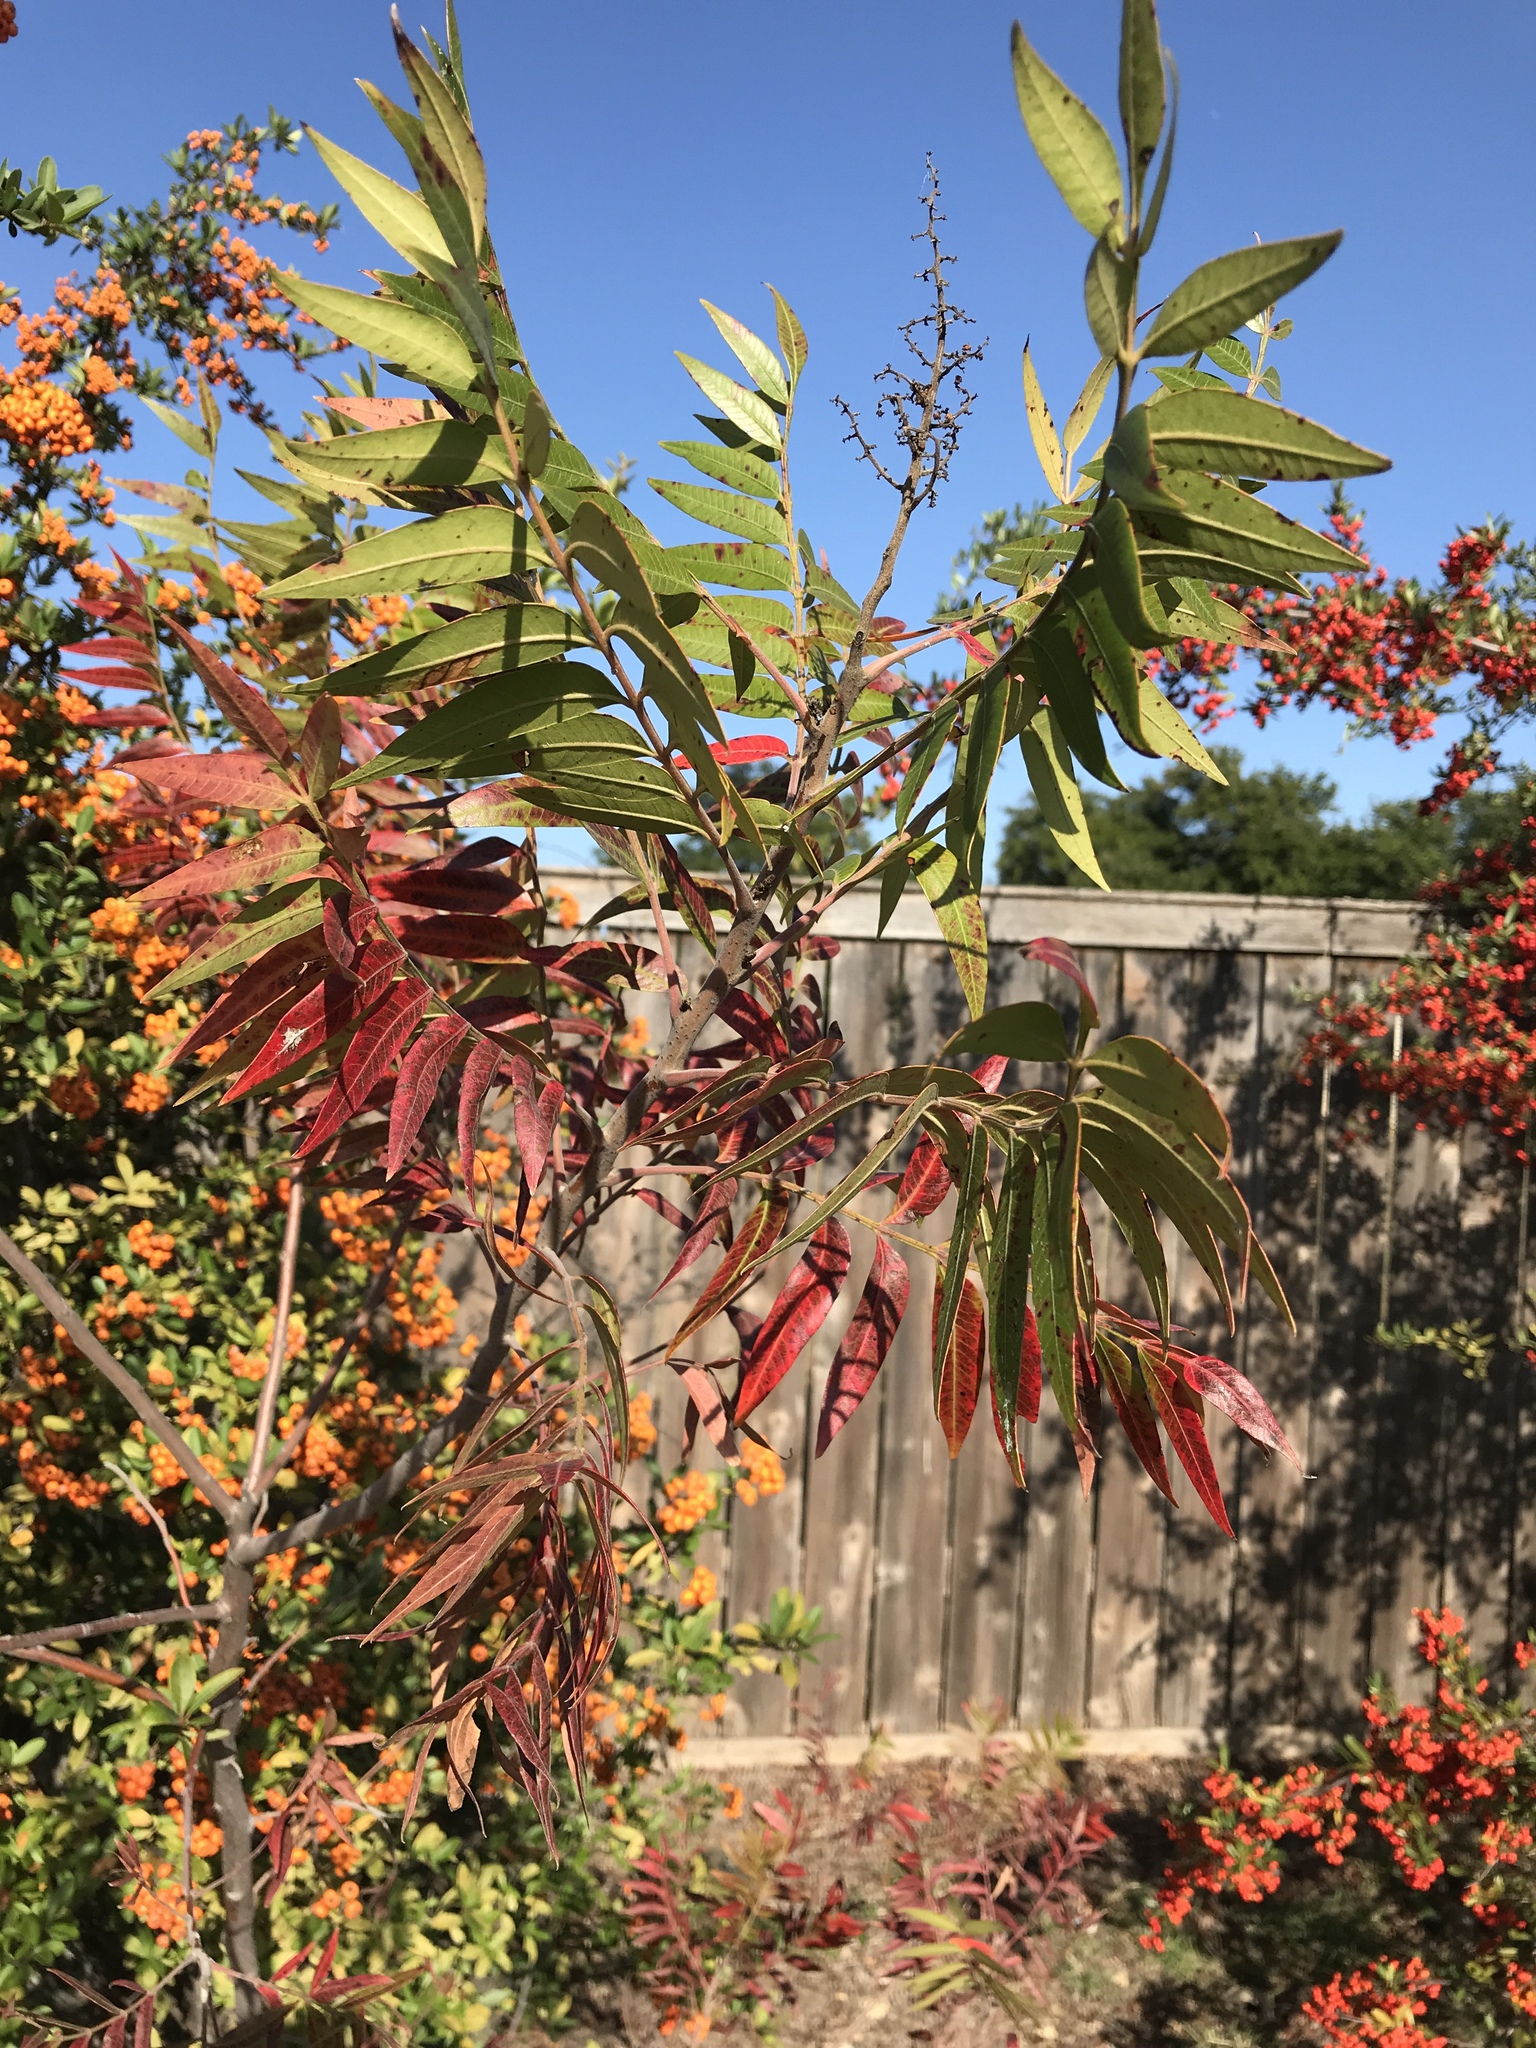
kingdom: Plantae
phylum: Tracheophyta
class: Magnoliopsida
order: Sapindales
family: Anacardiaceae
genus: Rhus
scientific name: Rhus lanceolata
